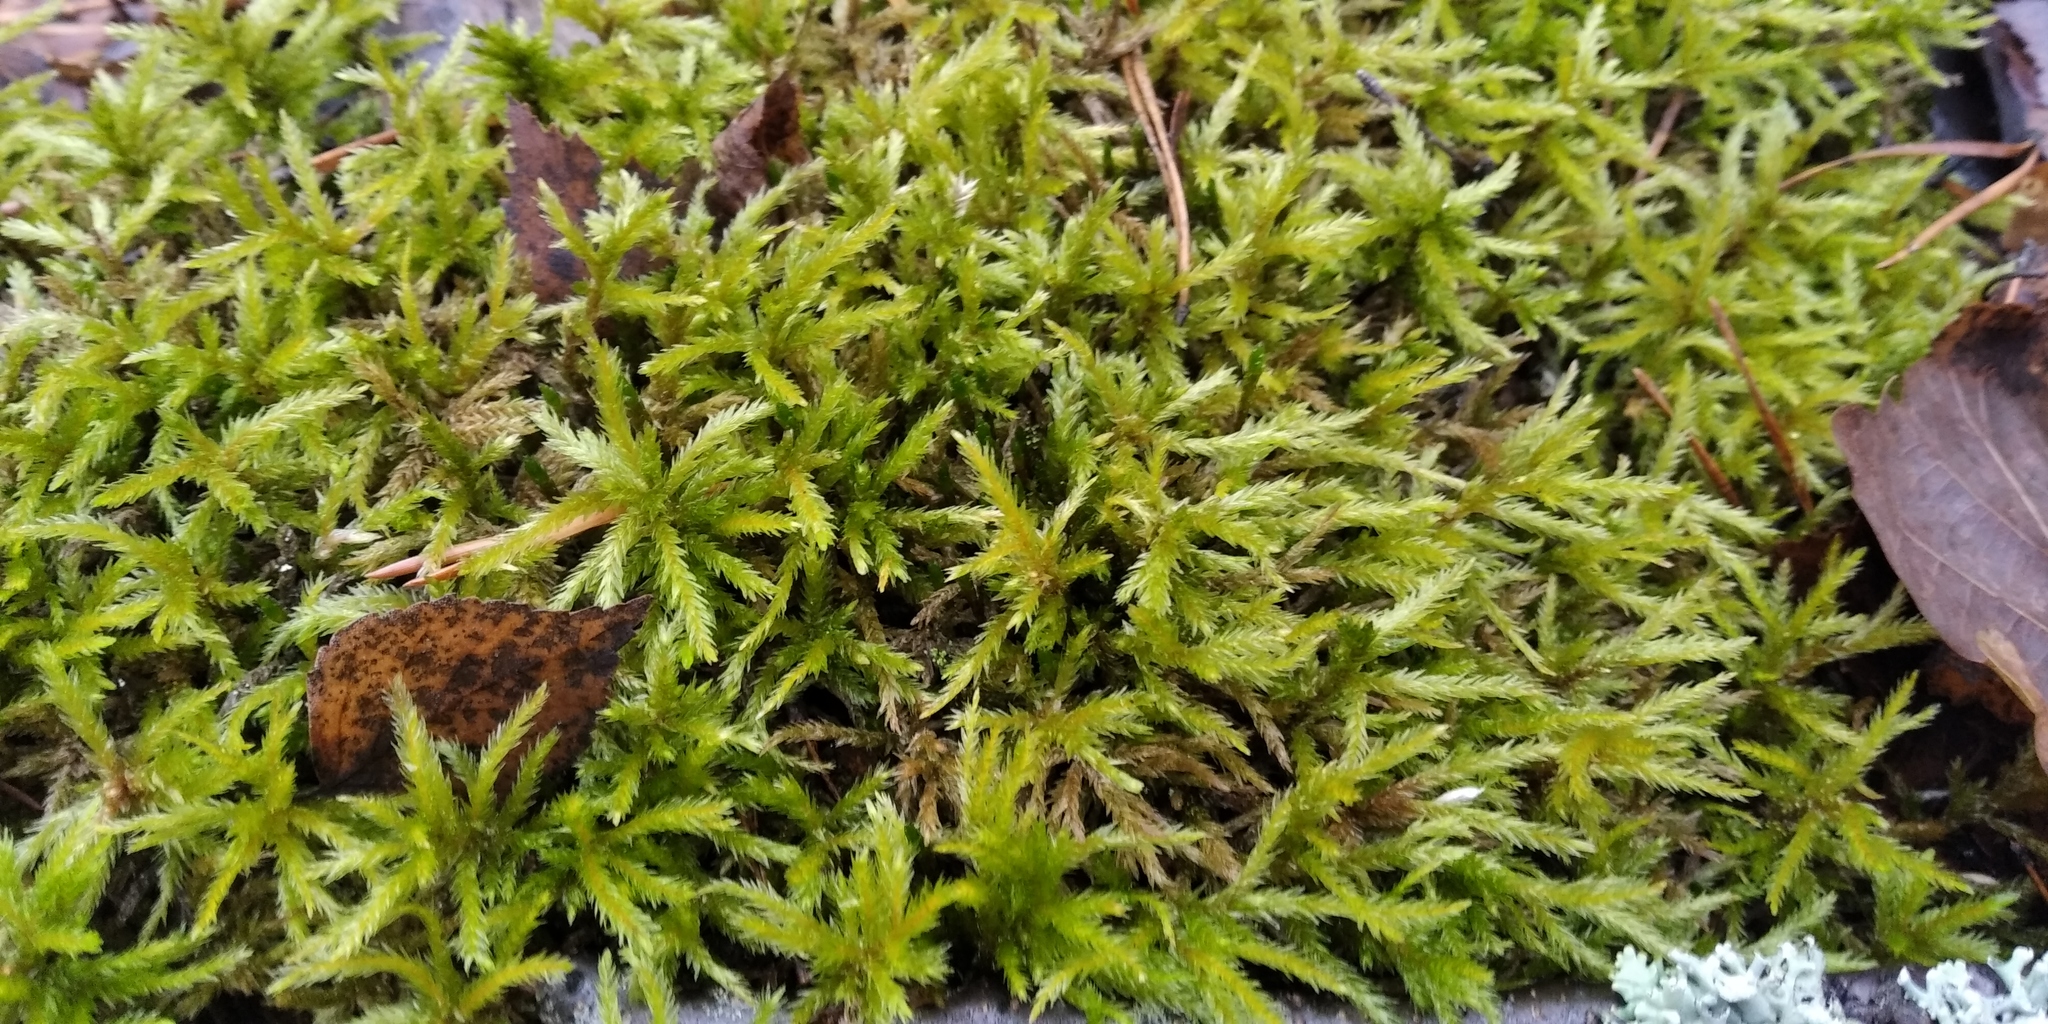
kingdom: Plantae
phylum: Bryophyta
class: Bryopsida
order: Hypnales
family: Climaciaceae
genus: Climacium
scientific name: Climacium dendroides
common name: Northern tree moss
